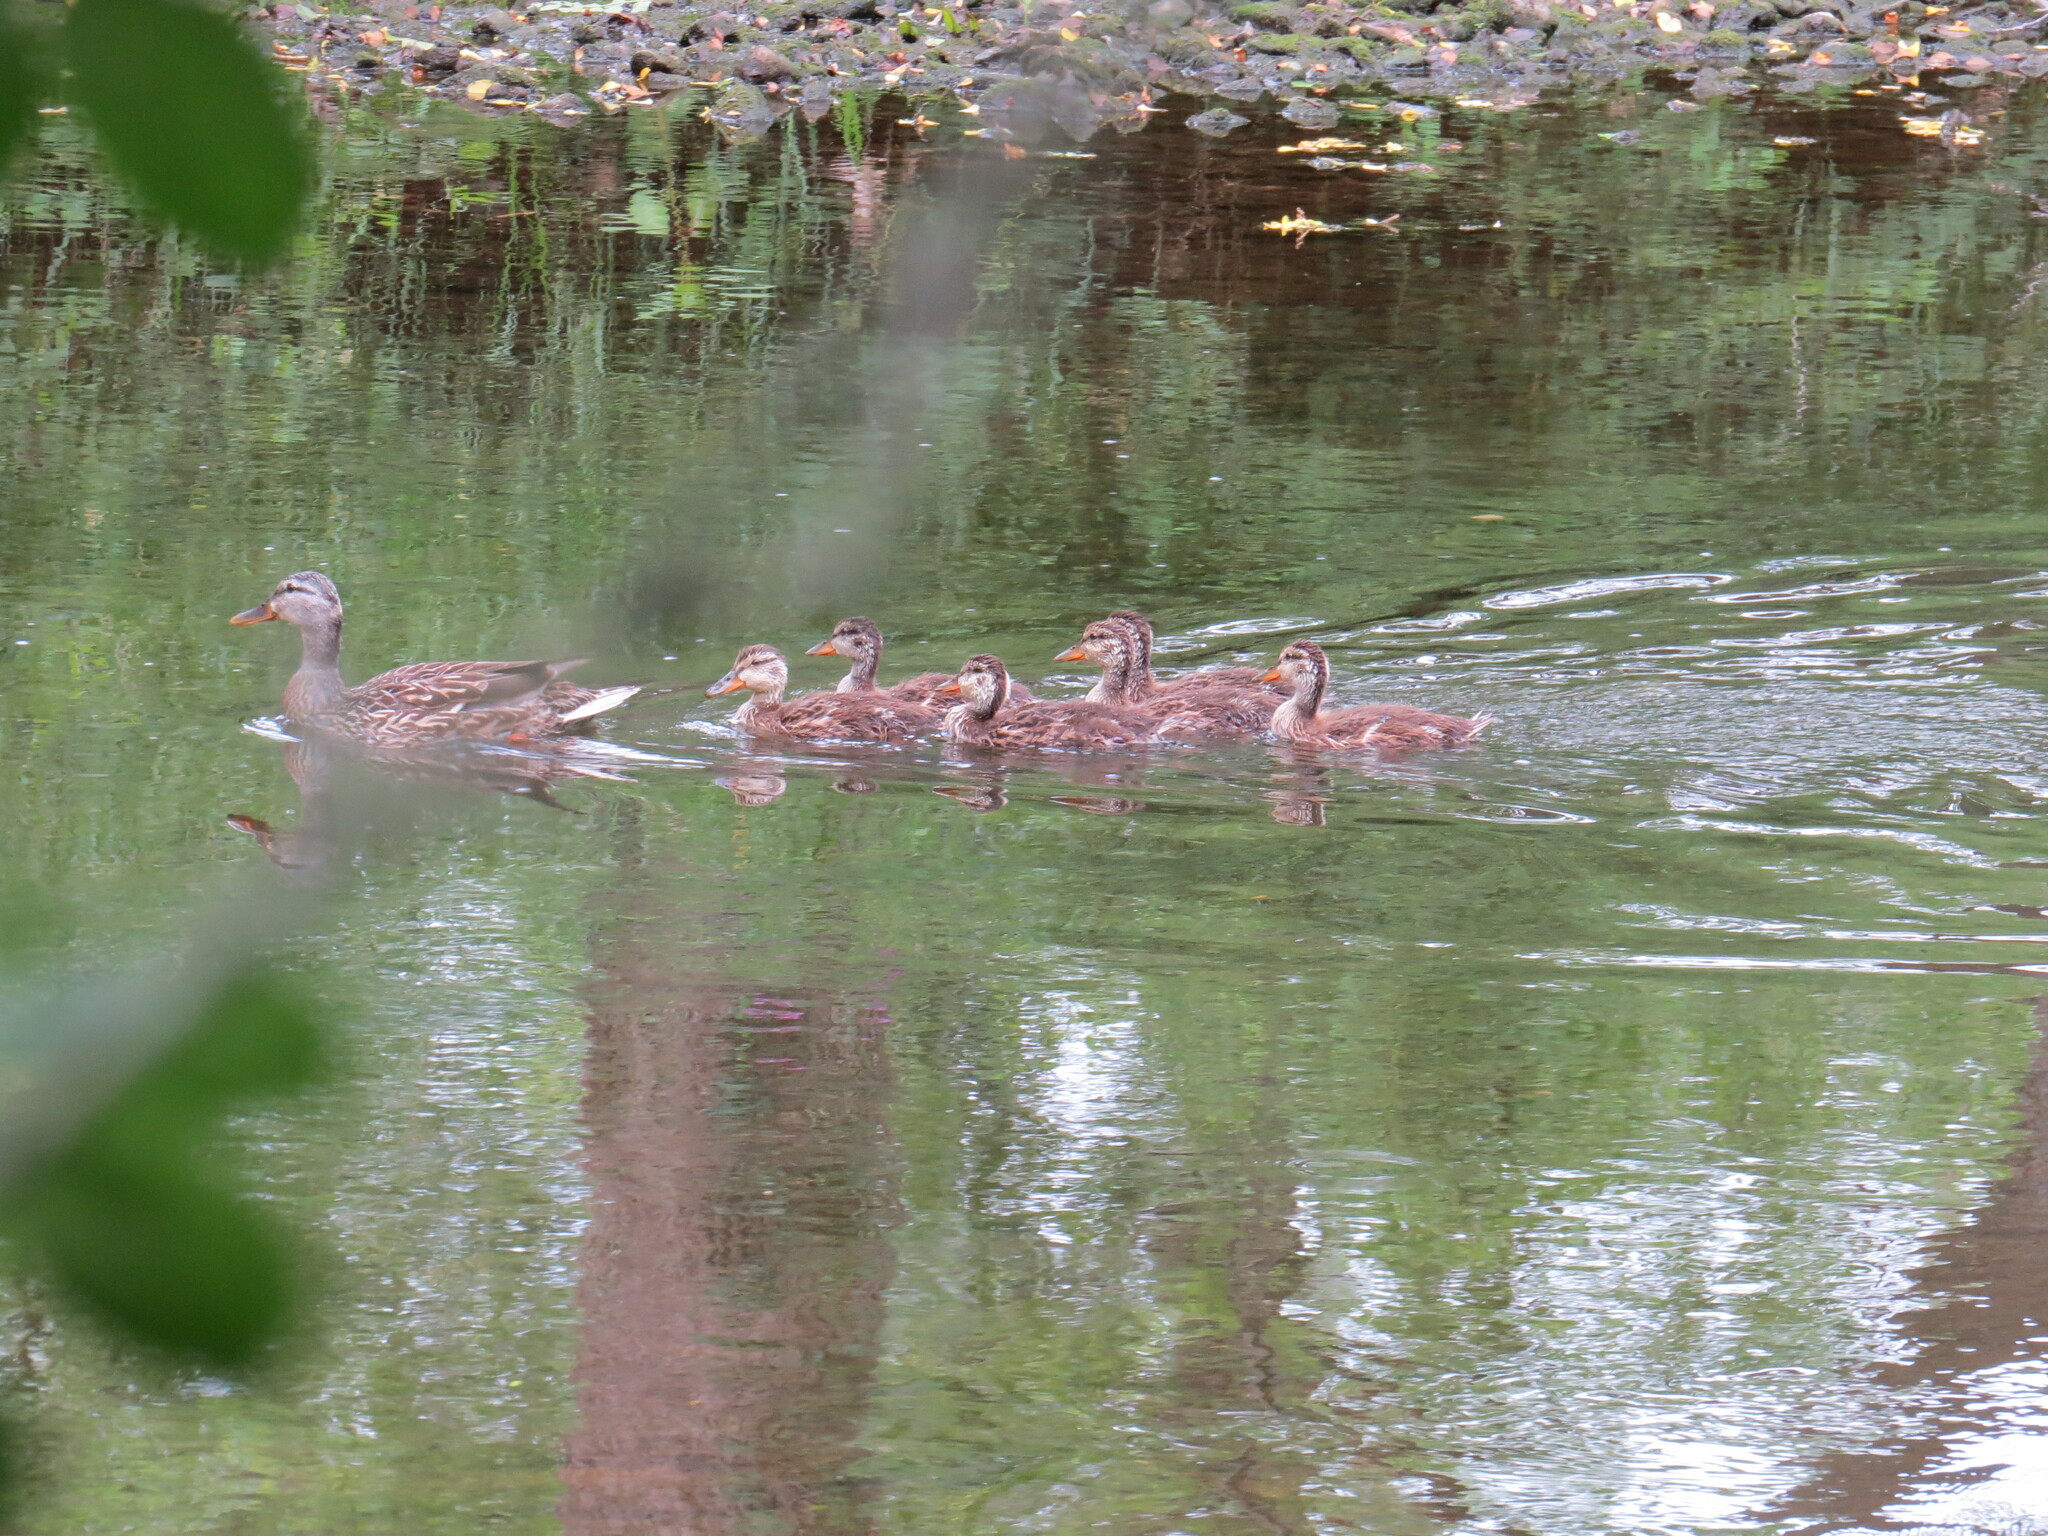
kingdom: Animalia
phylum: Chordata
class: Aves
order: Anseriformes
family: Anatidae
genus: Anas
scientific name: Anas platyrhynchos
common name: Mallard
